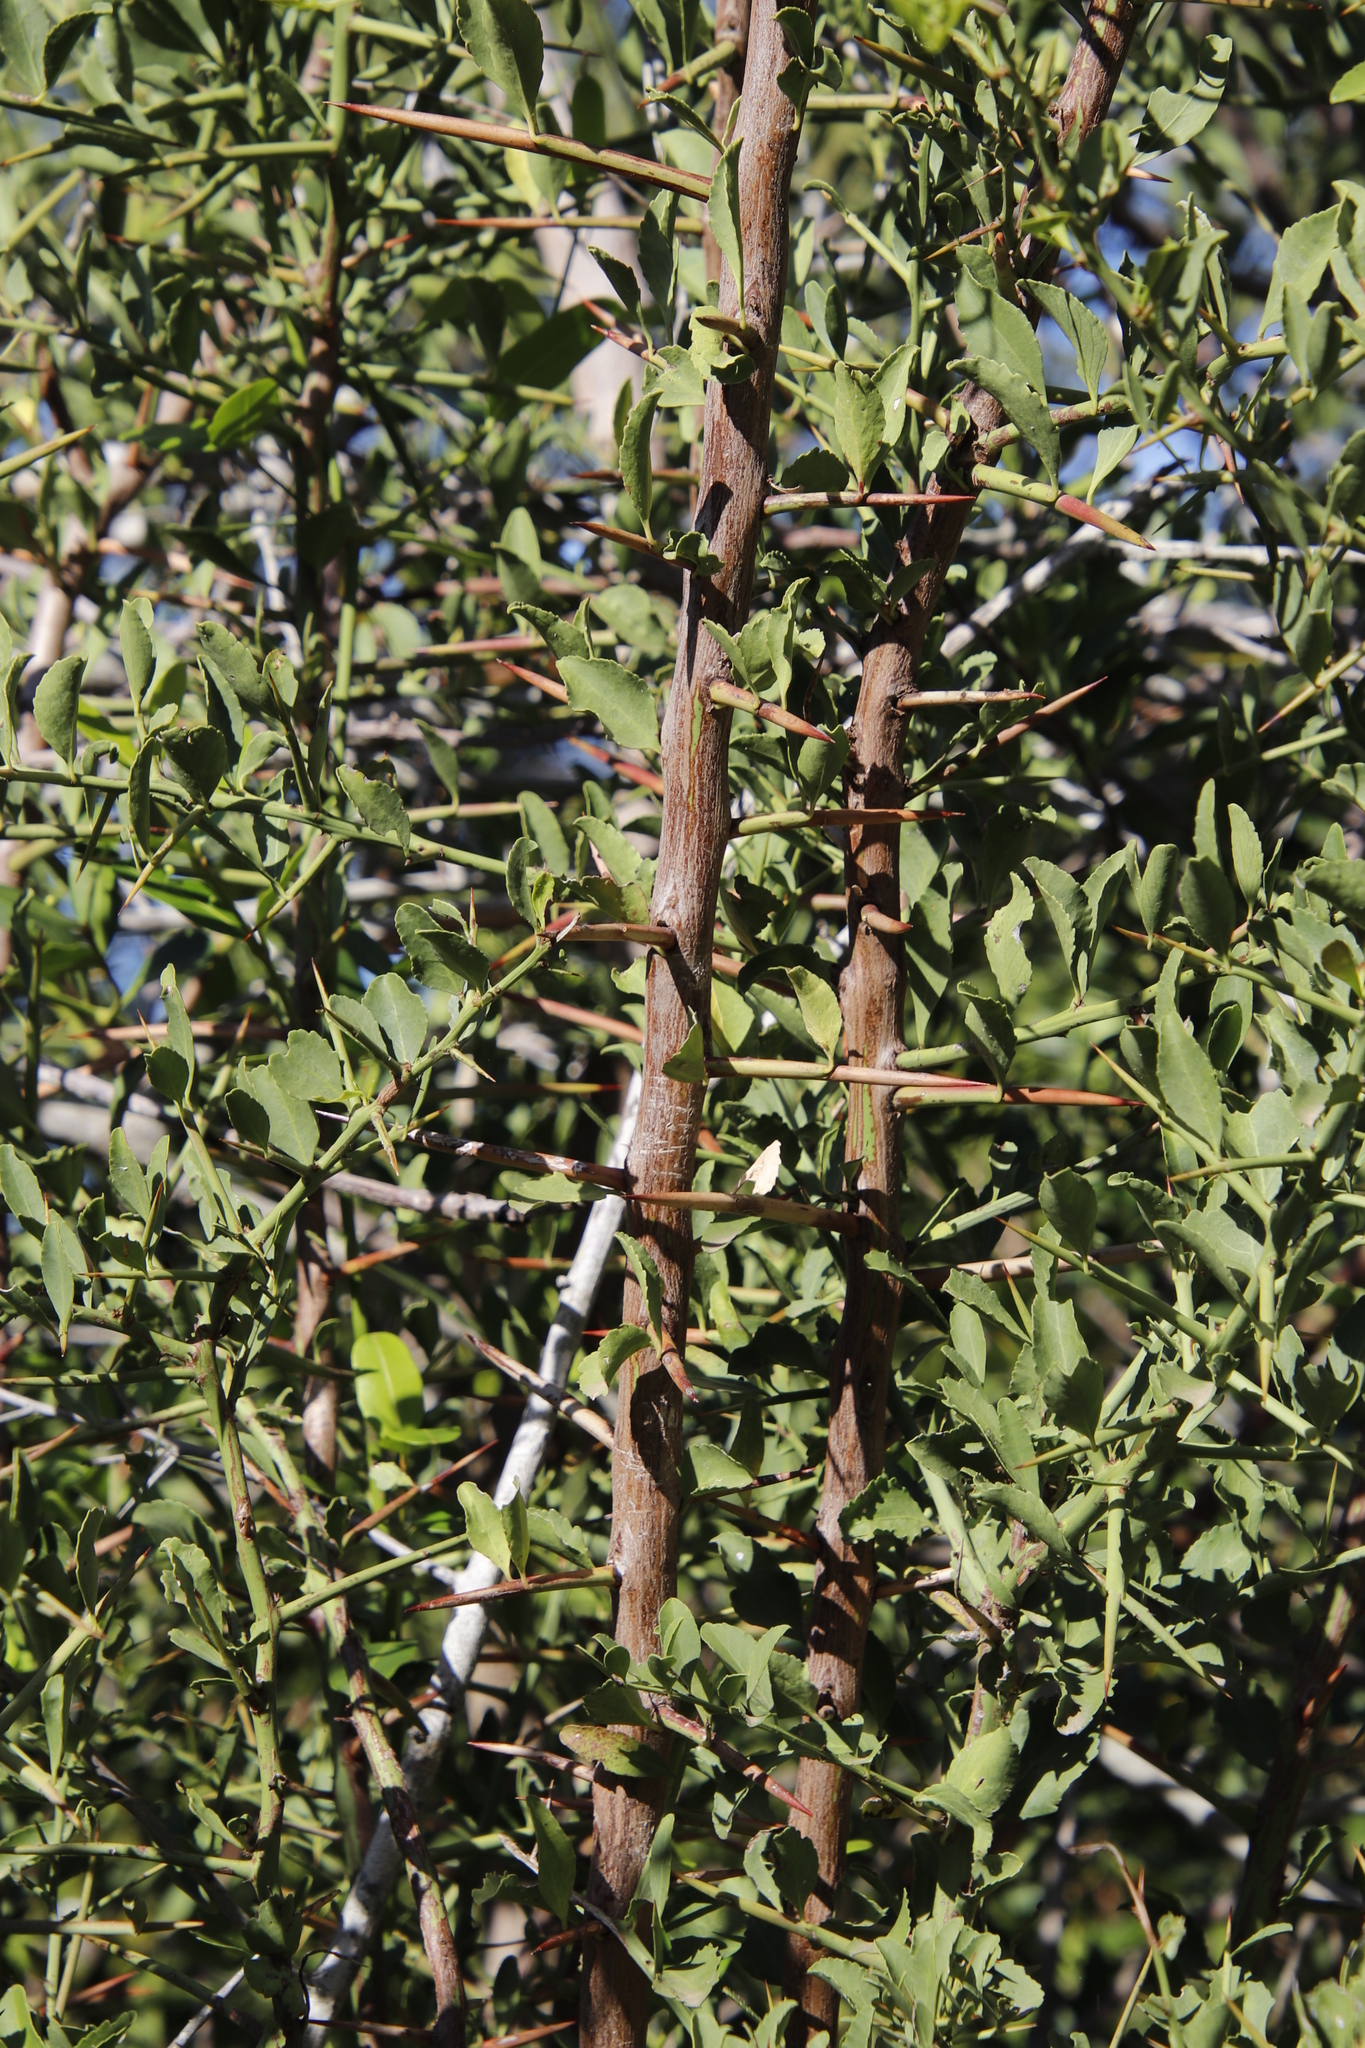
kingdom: Plantae
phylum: Tracheophyta
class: Magnoliopsida
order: Celastrales
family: Celastraceae
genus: Gymnosporia
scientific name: Gymnosporia buxifolia
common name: Common spike-thorn
